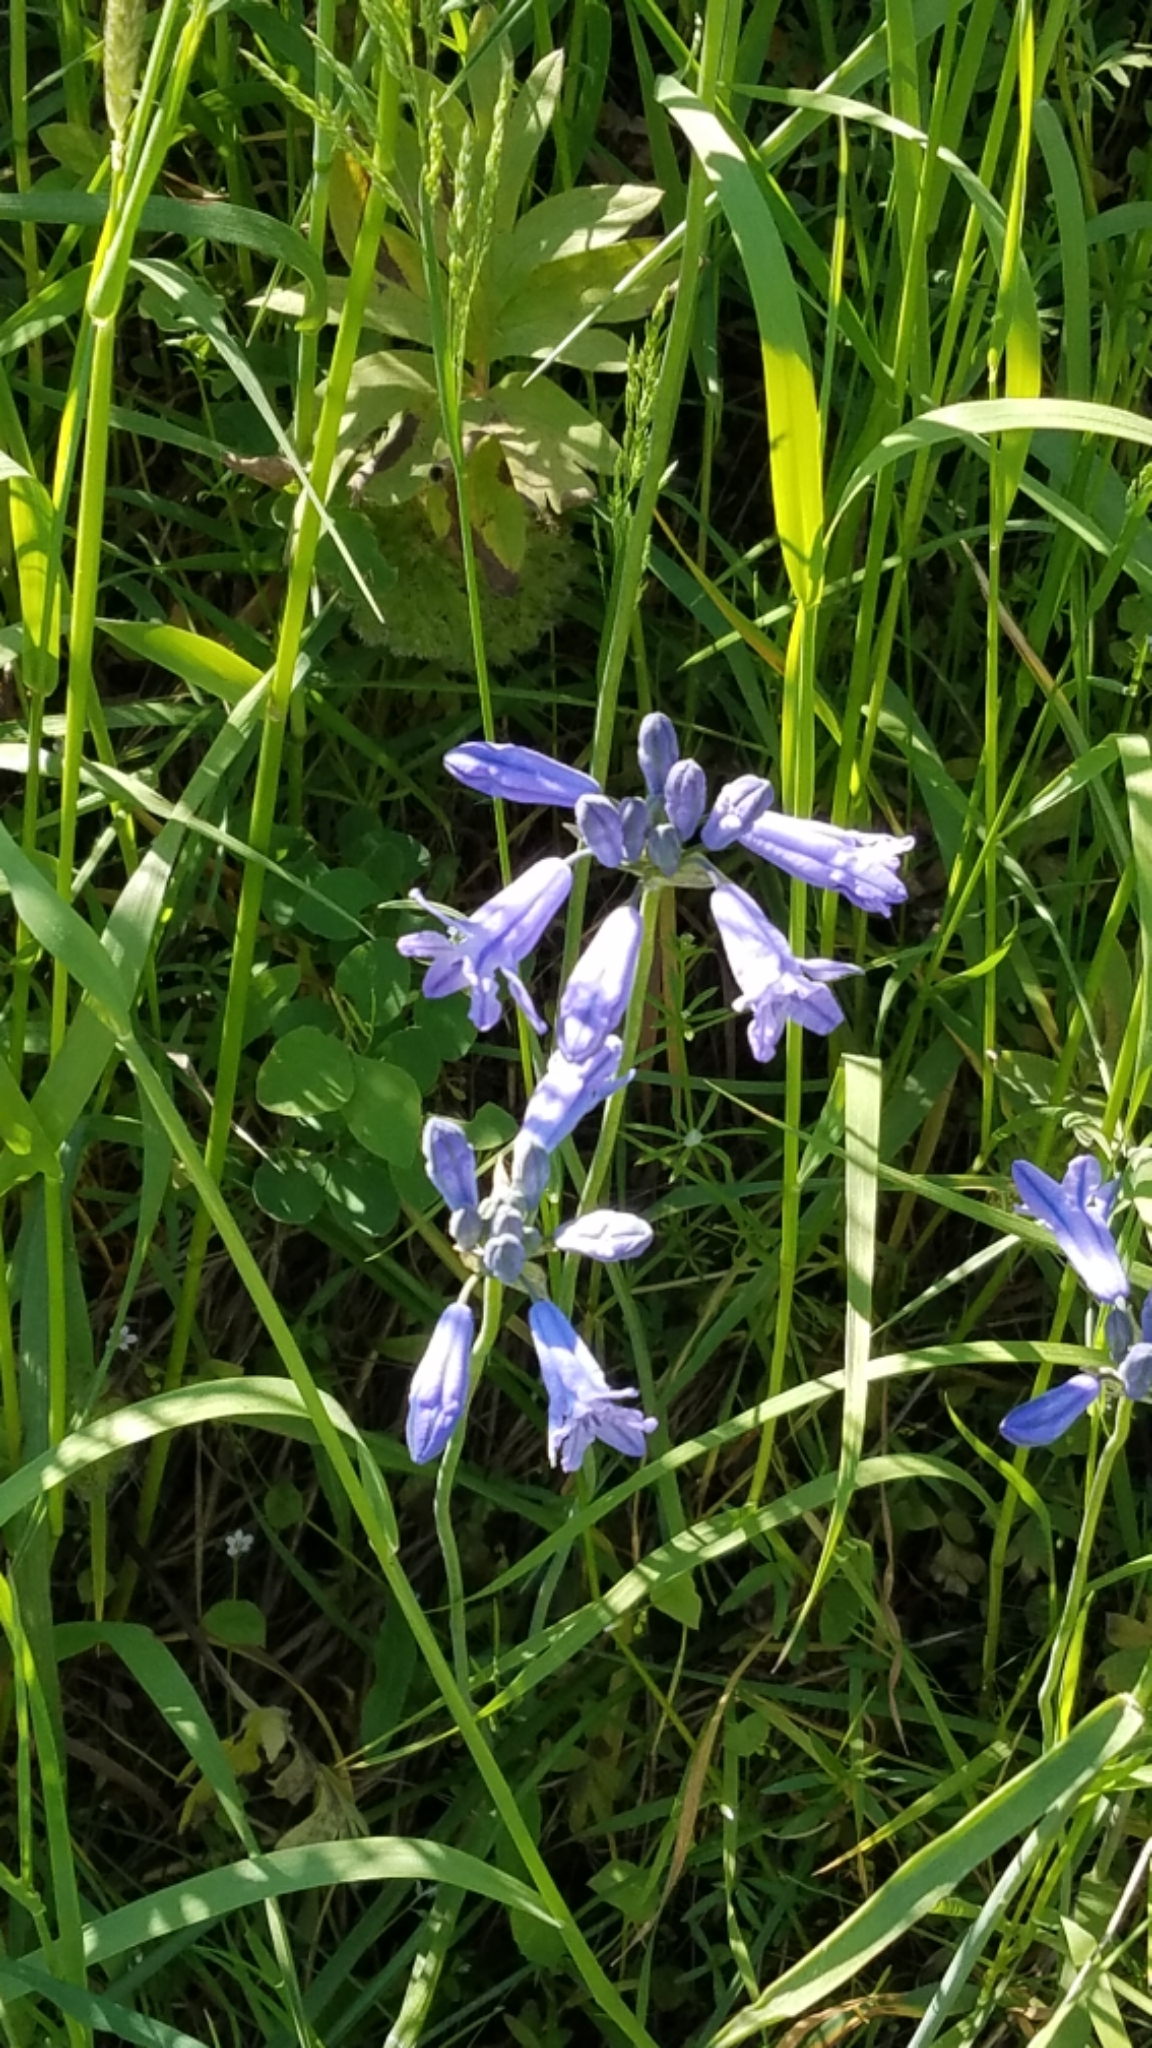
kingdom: Plantae
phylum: Tracheophyta
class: Liliopsida
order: Asparagales
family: Asparagaceae
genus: Triteleia
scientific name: Triteleia grandiflora
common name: Wild hyacinth
